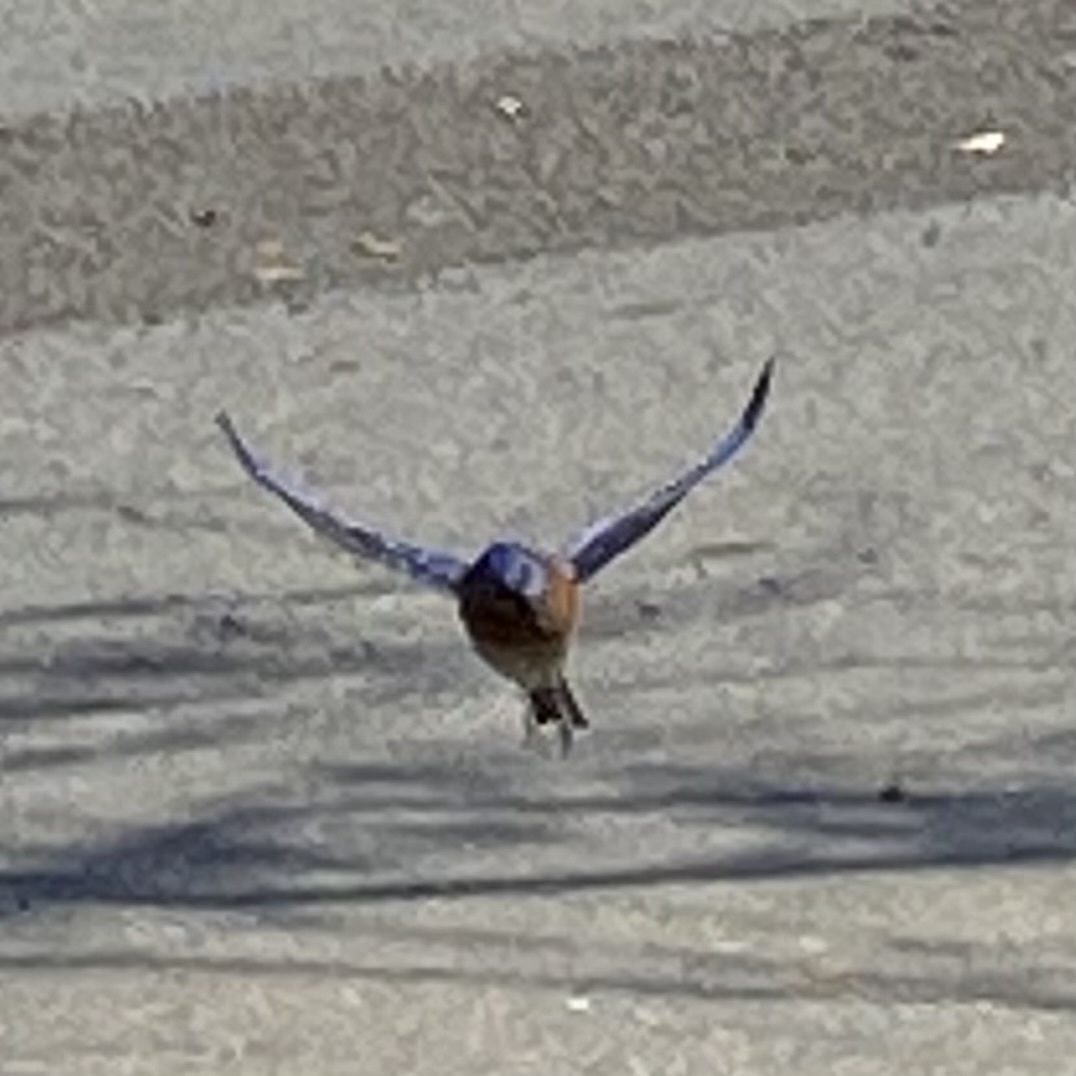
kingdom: Animalia
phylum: Chordata
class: Aves
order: Passeriformes
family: Turdidae
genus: Sialia
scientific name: Sialia mexicana
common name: Western bluebird
